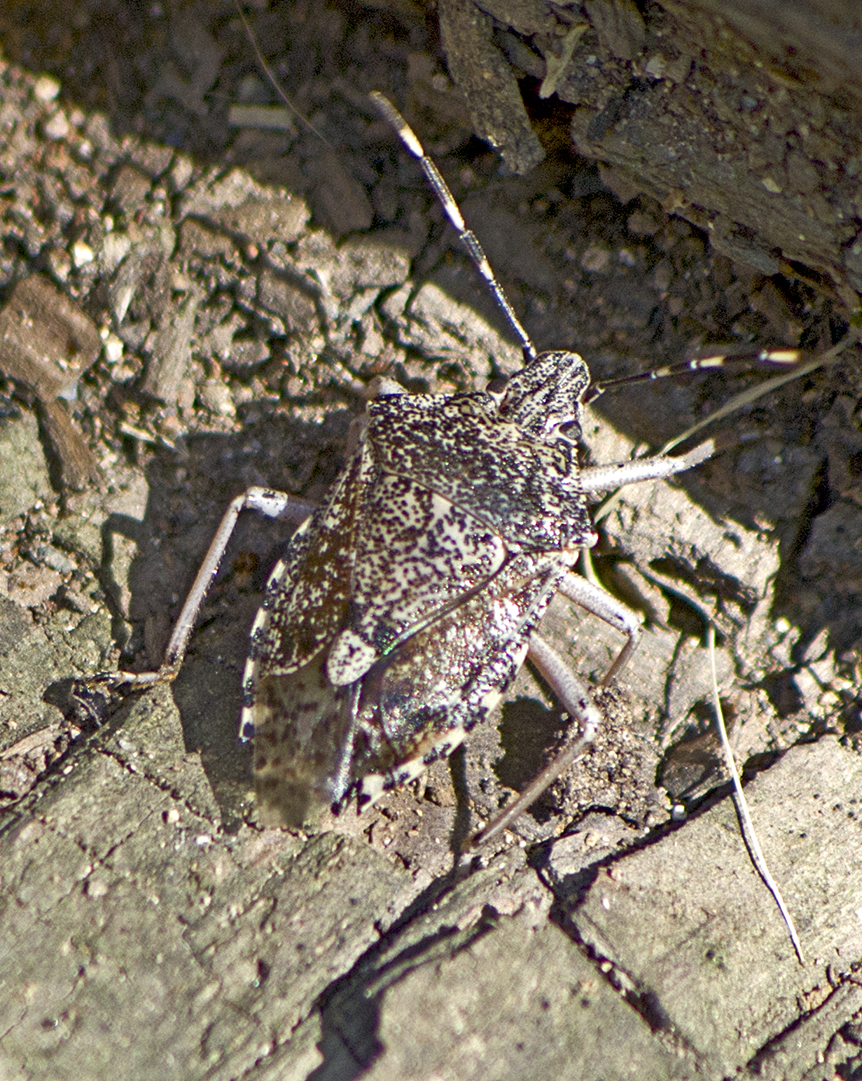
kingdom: Animalia
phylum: Arthropoda
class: Insecta
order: Hemiptera
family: Pentatomidae
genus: Rhaphigaster
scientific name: Rhaphigaster nebulosa
